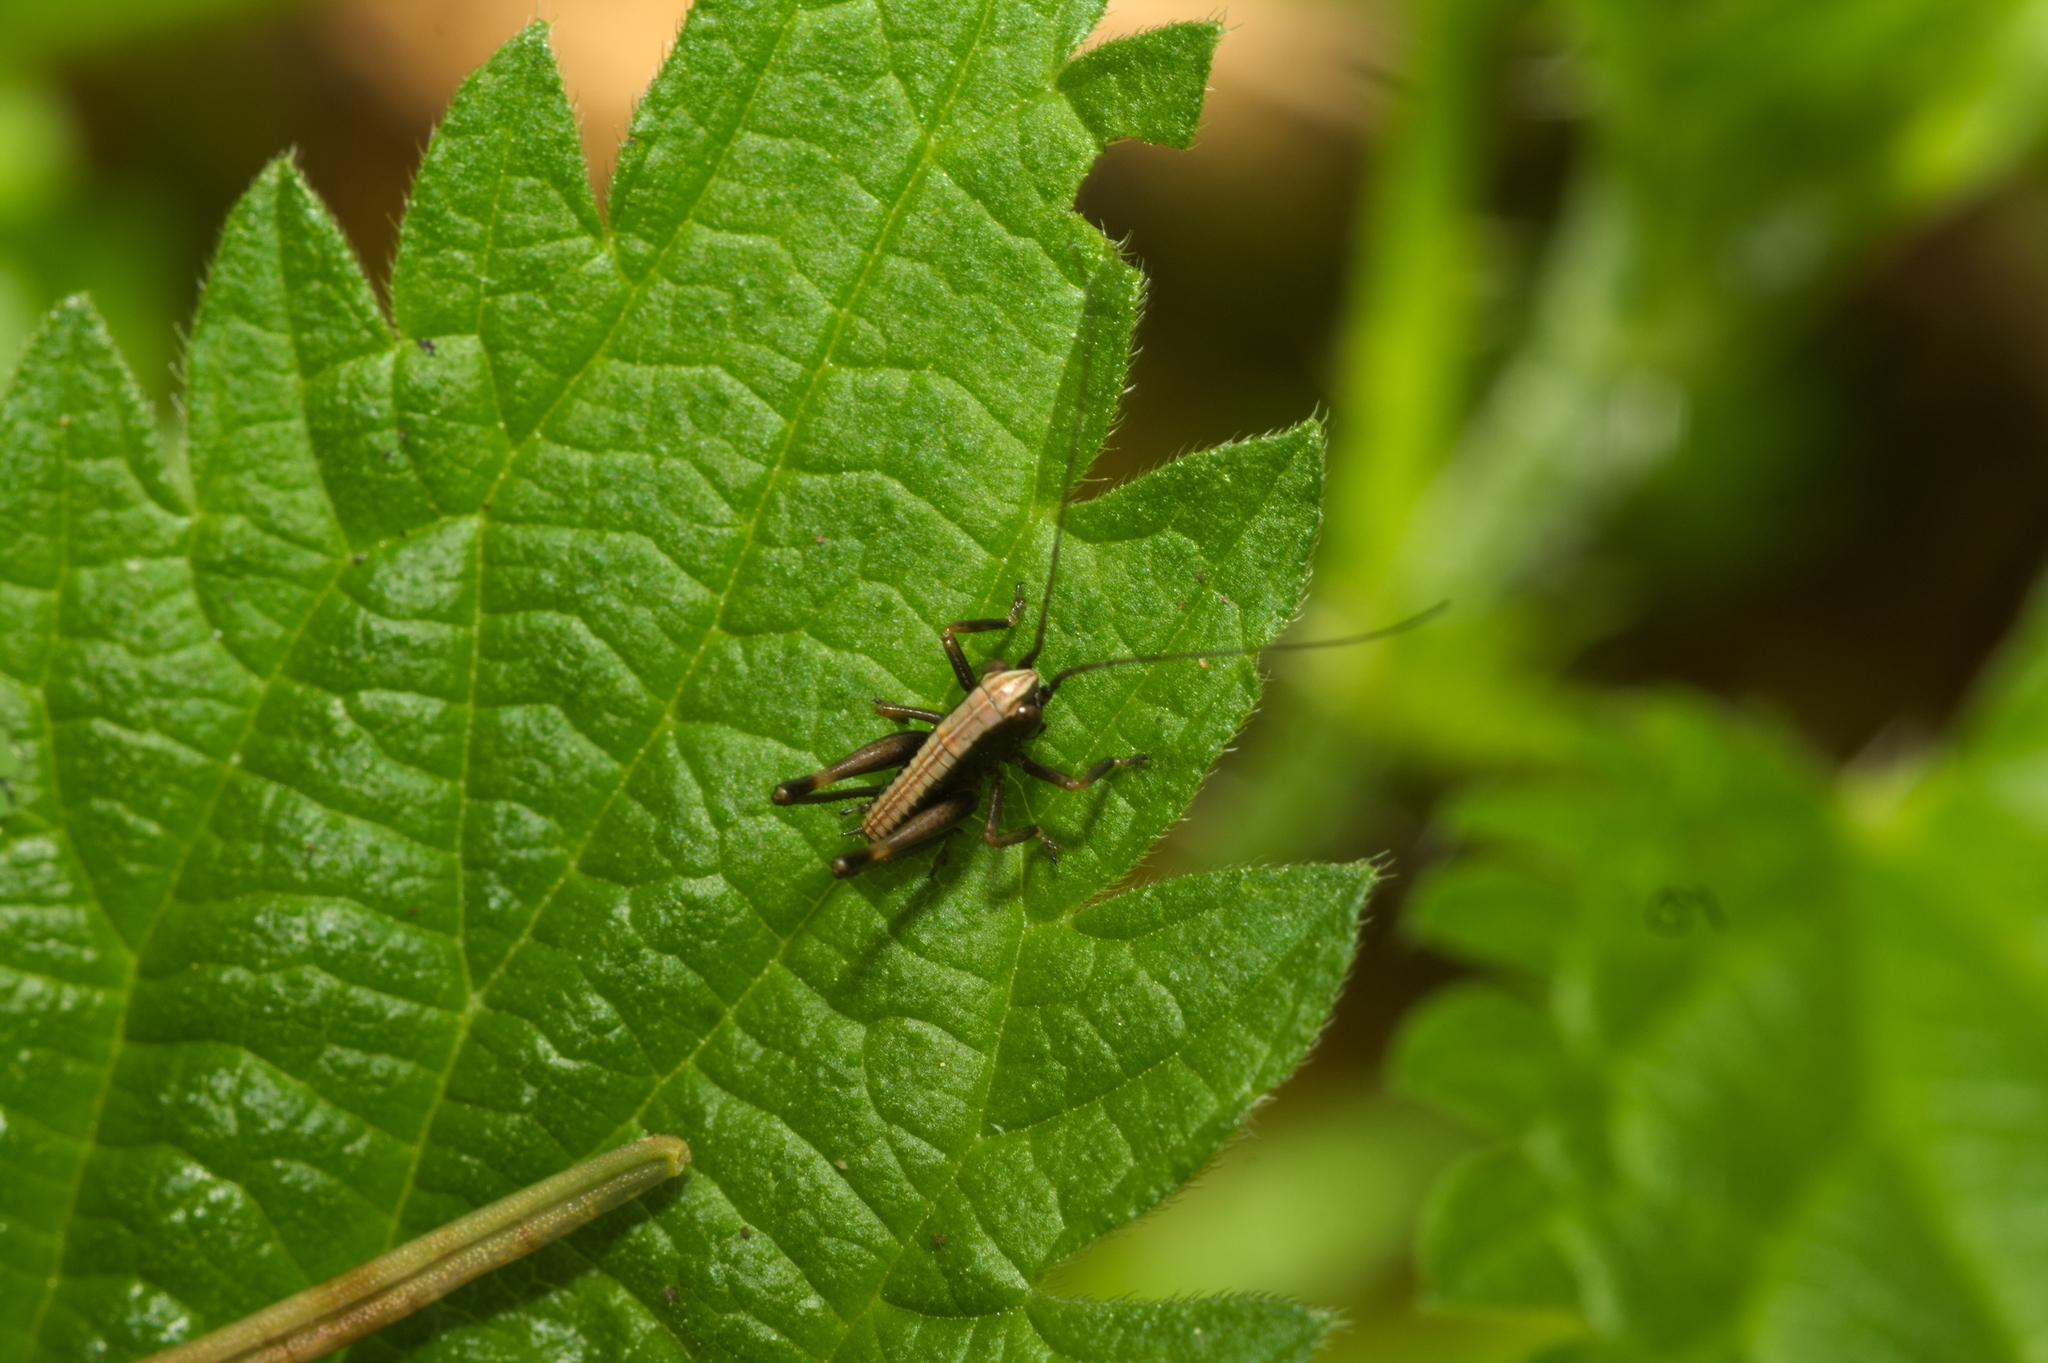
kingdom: Animalia
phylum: Arthropoda
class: Insecta
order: Orthoptera
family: Tettigoniidae
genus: Pholidoptera
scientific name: Pholidoptera griseoaptera
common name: Dark bush-cricket
